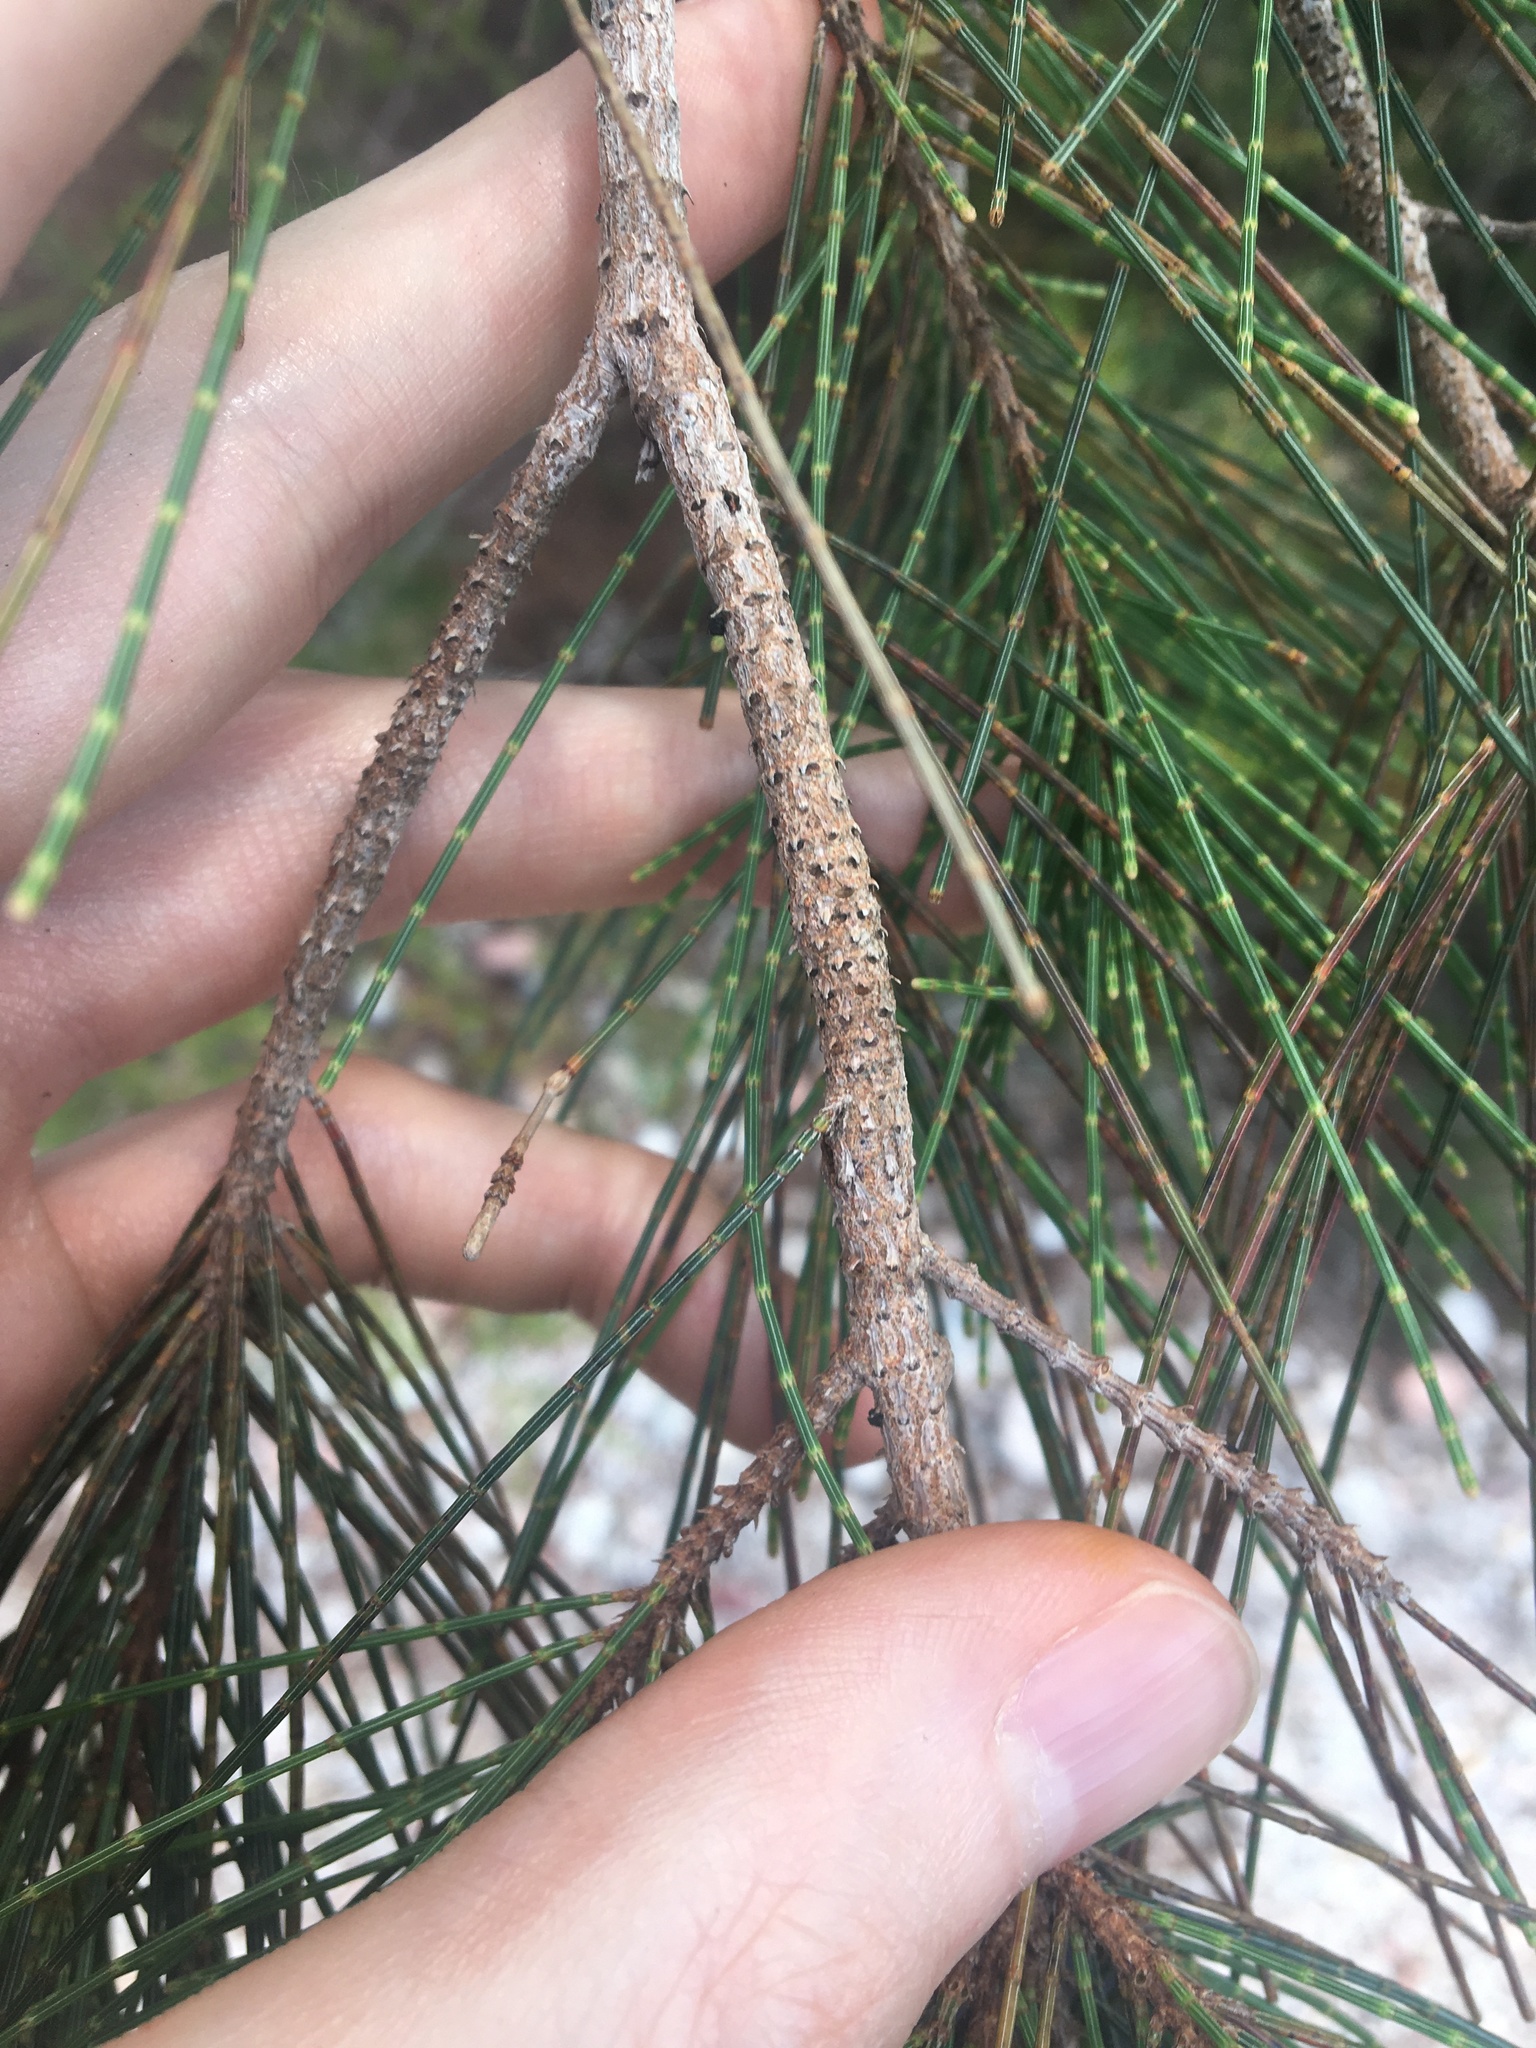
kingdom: Plantae
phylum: Tracheophyta
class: Magnoliopsida
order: Fagales
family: Casuarinaceae
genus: Allocasuarina
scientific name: Allocasuarina thalassoscopica
